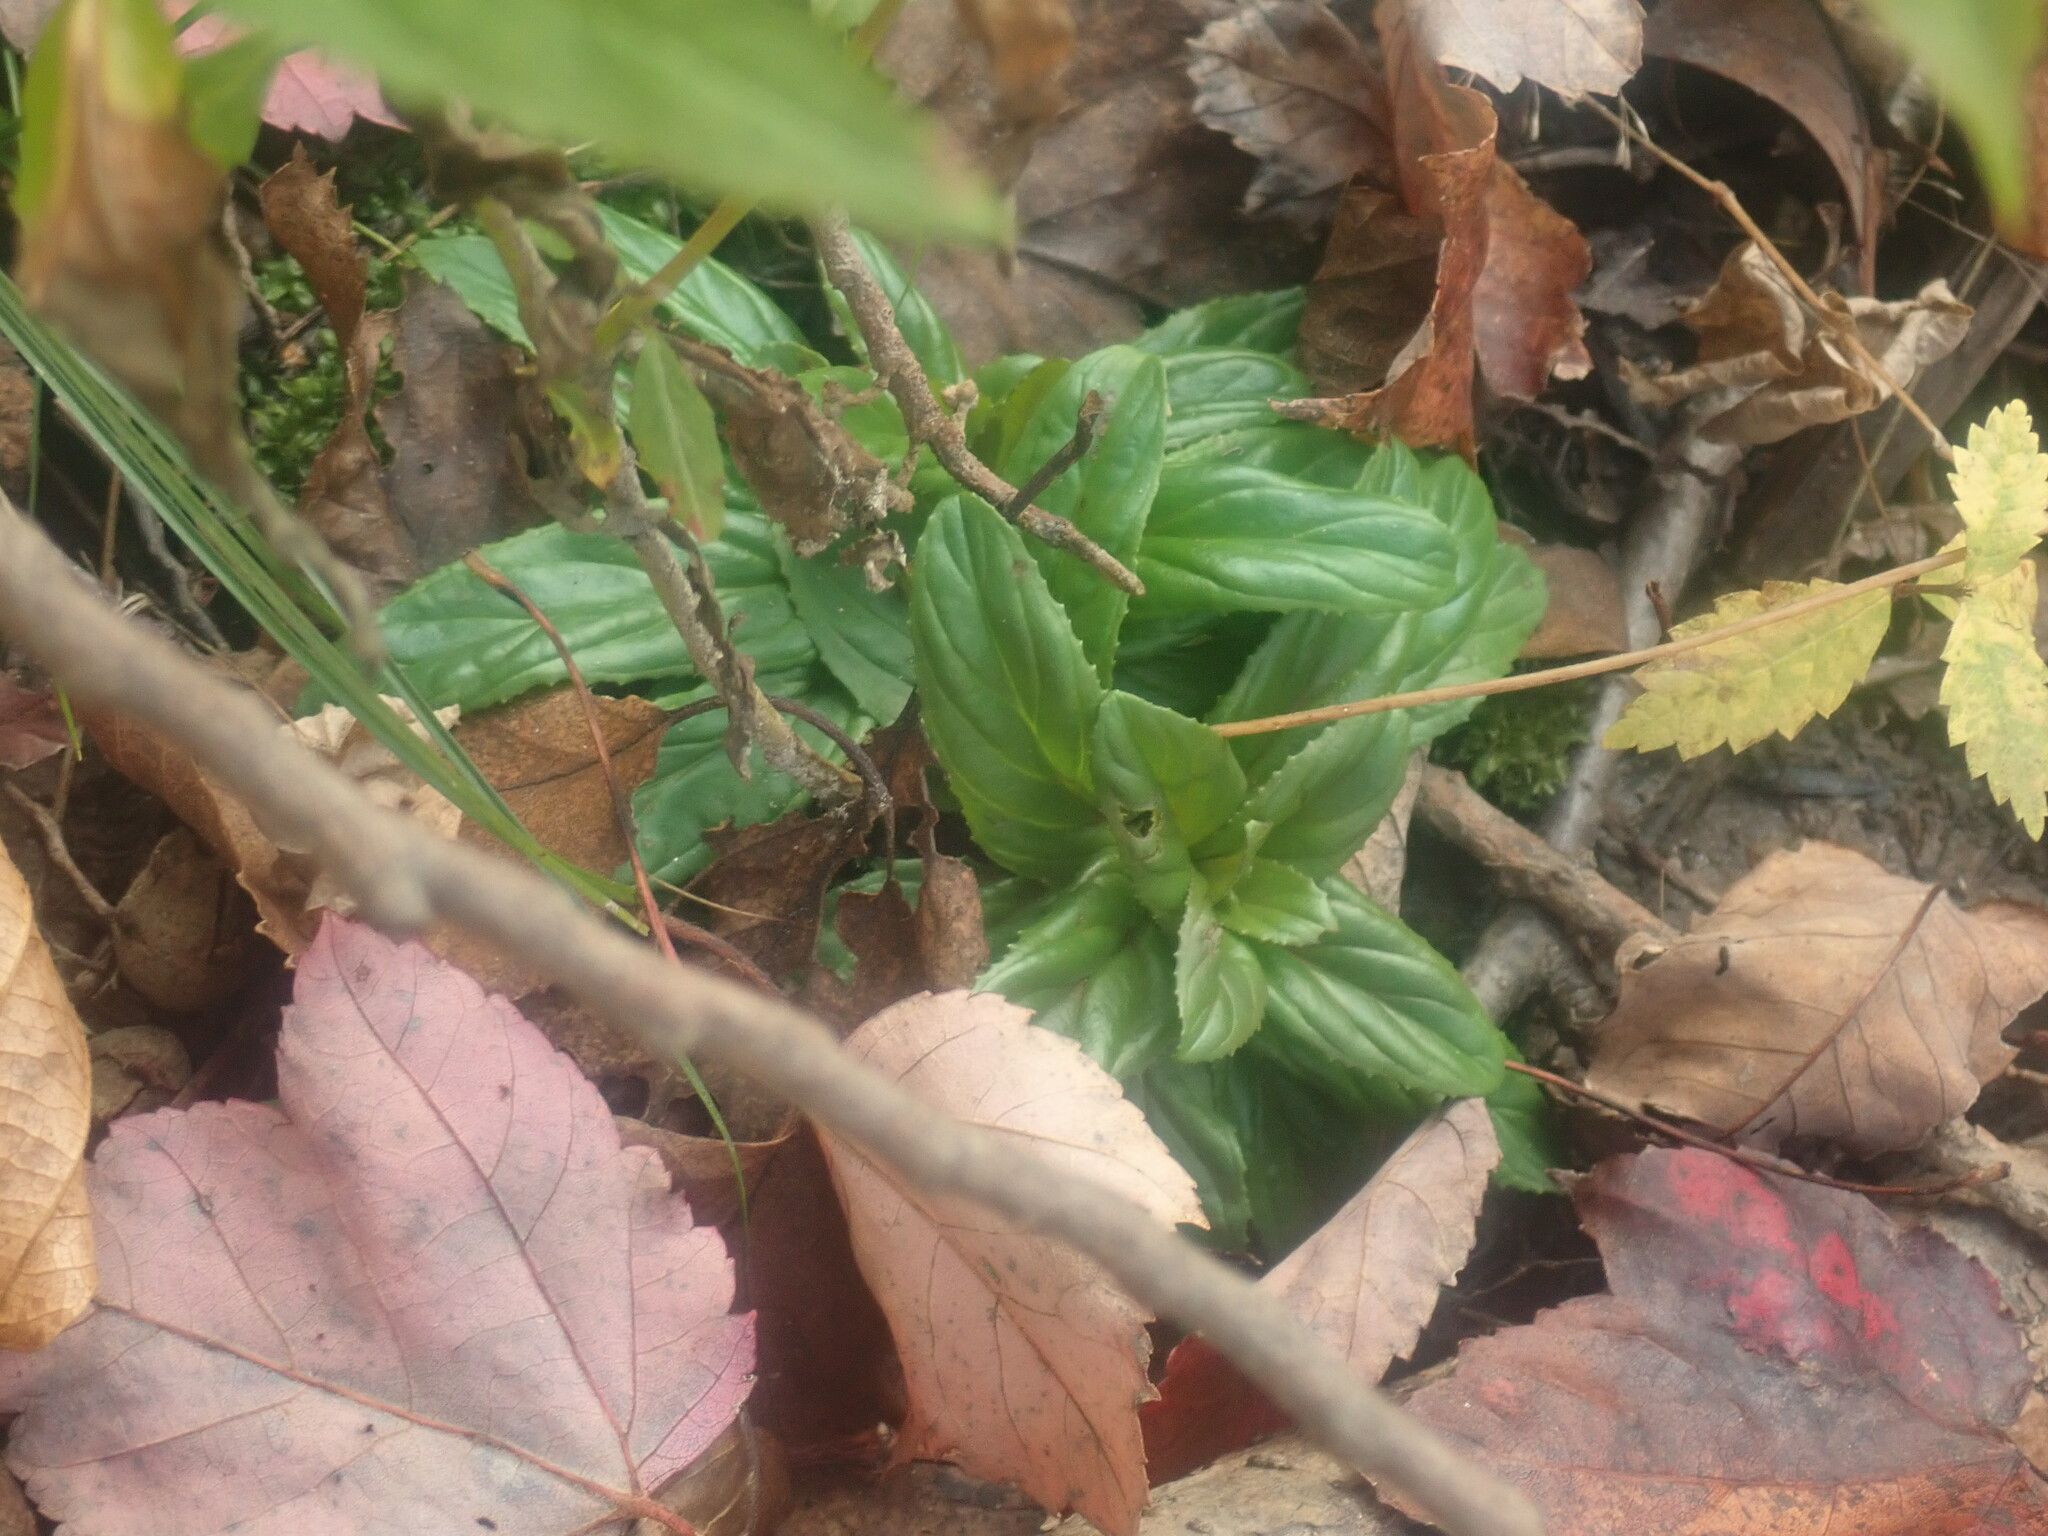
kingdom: Plantae
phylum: Tracheophyta
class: Magnoliopsida
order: Myrtales
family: Onagraceae
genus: Epilobium
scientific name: Epilobium
